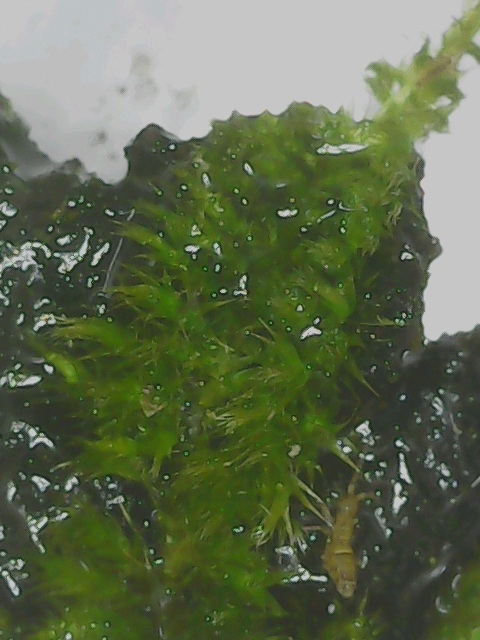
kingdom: Plantae
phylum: Bryophyta
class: Bryopsida
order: Hypnales
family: Brachytheciaceae
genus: Homalothecium
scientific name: Homalothecium sericeum
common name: Silky wall feather-moss
